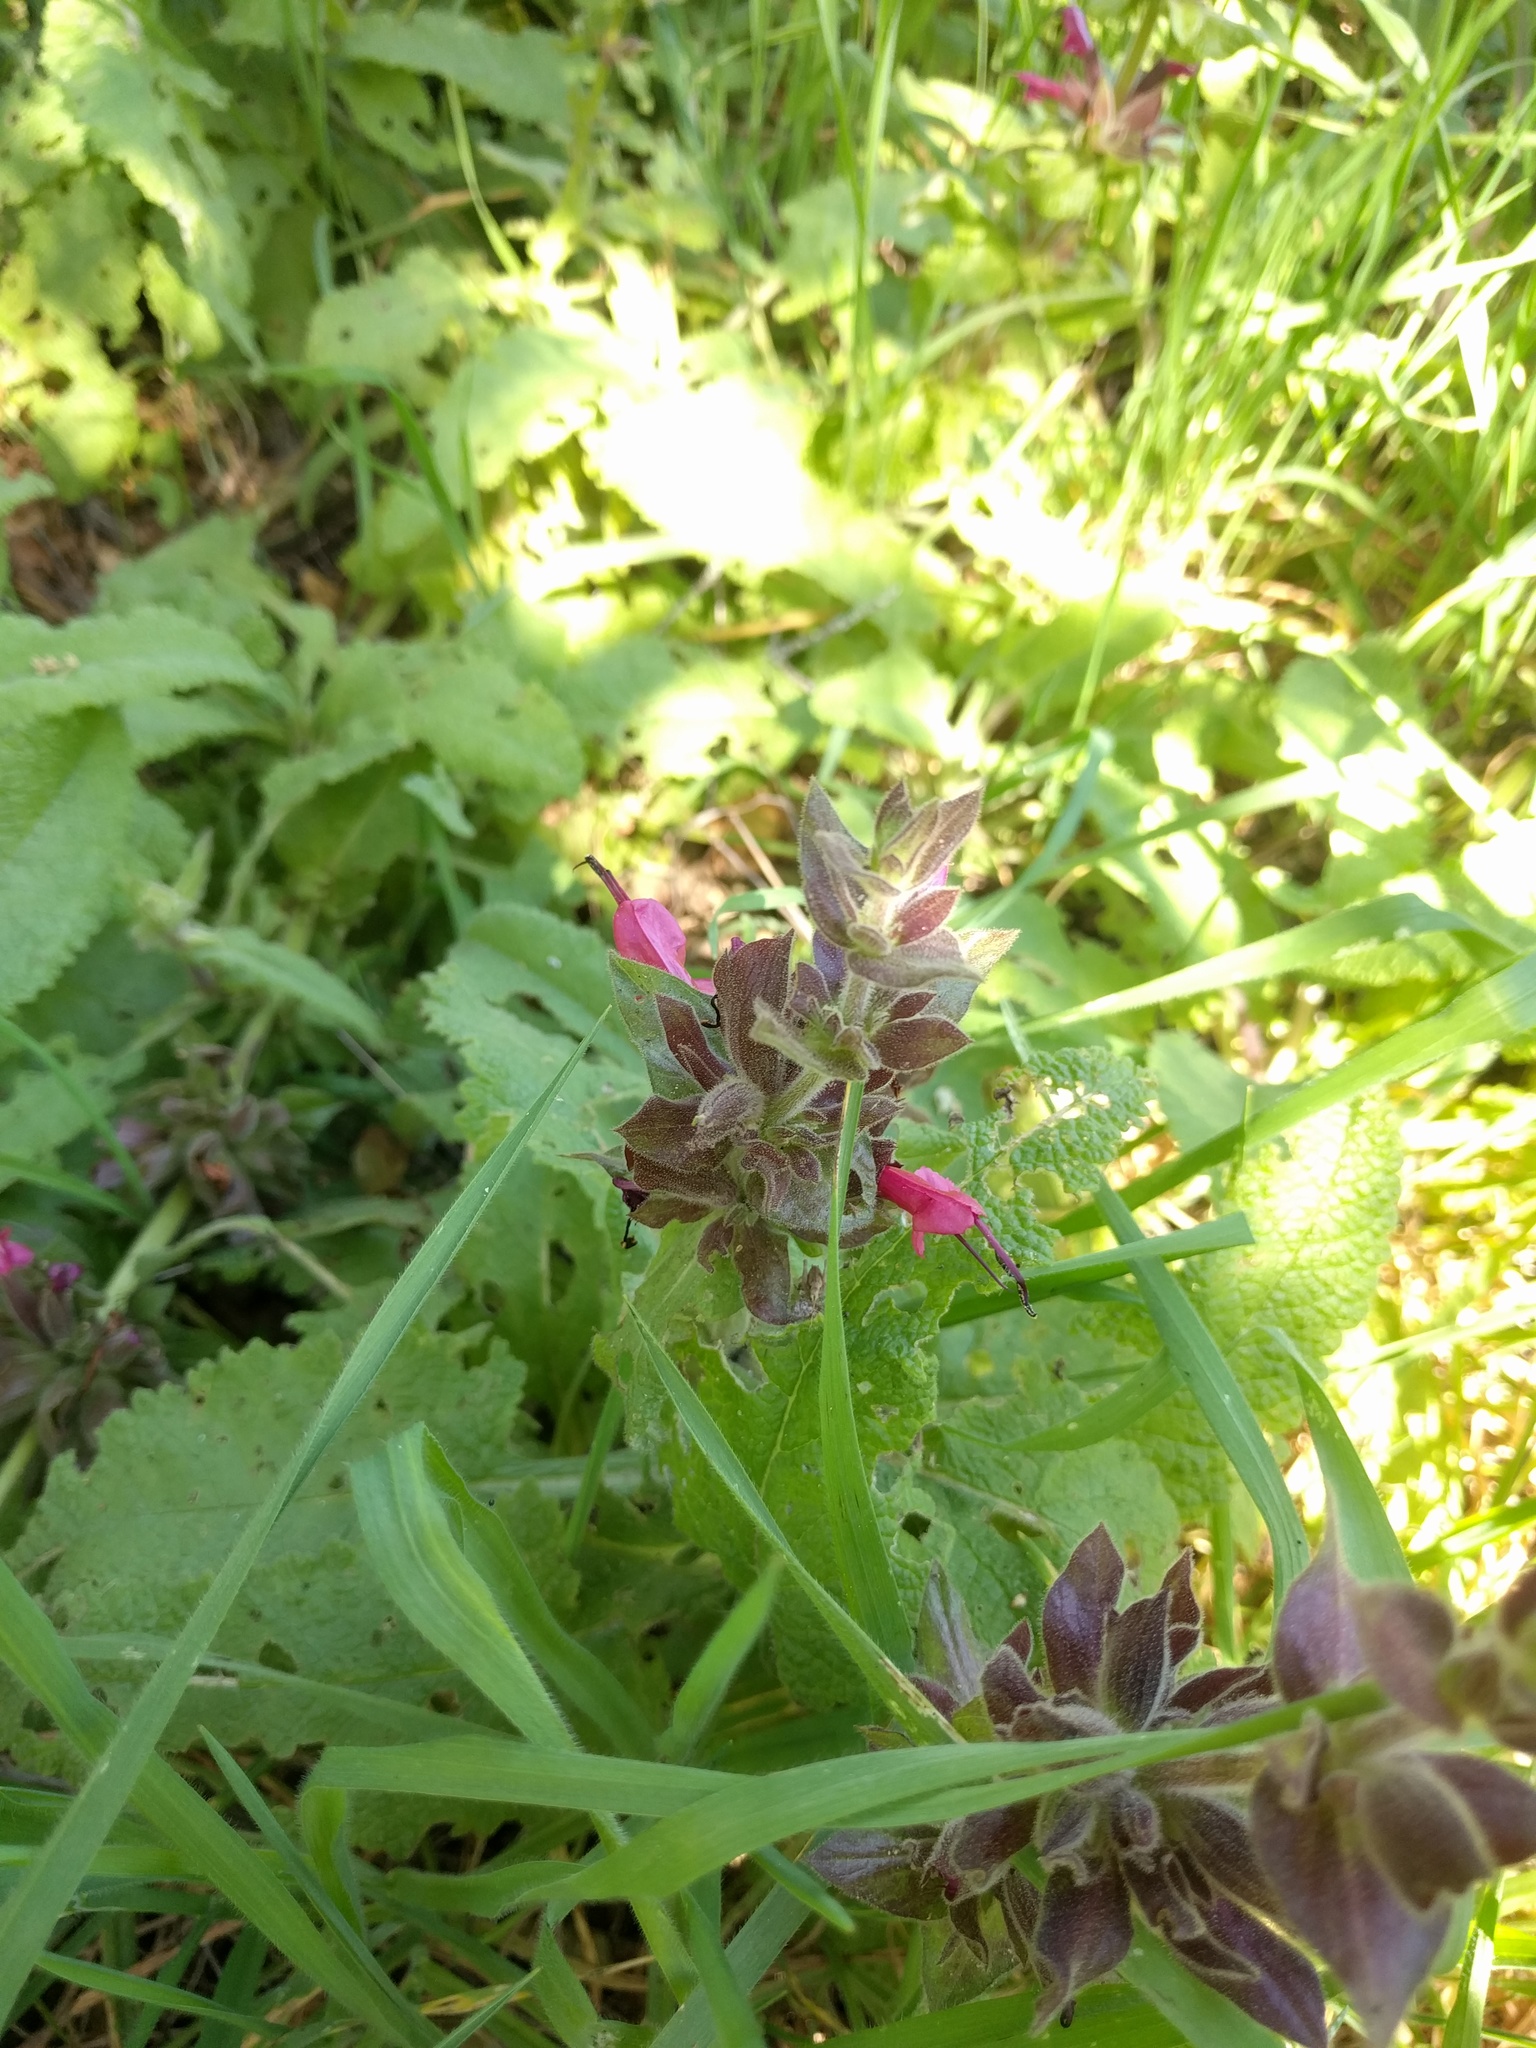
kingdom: Plantae
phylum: Tracheophyta
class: Magnoliopsida
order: Lamiales
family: Lamiaceae
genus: Salvia
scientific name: Salvia spathacea
